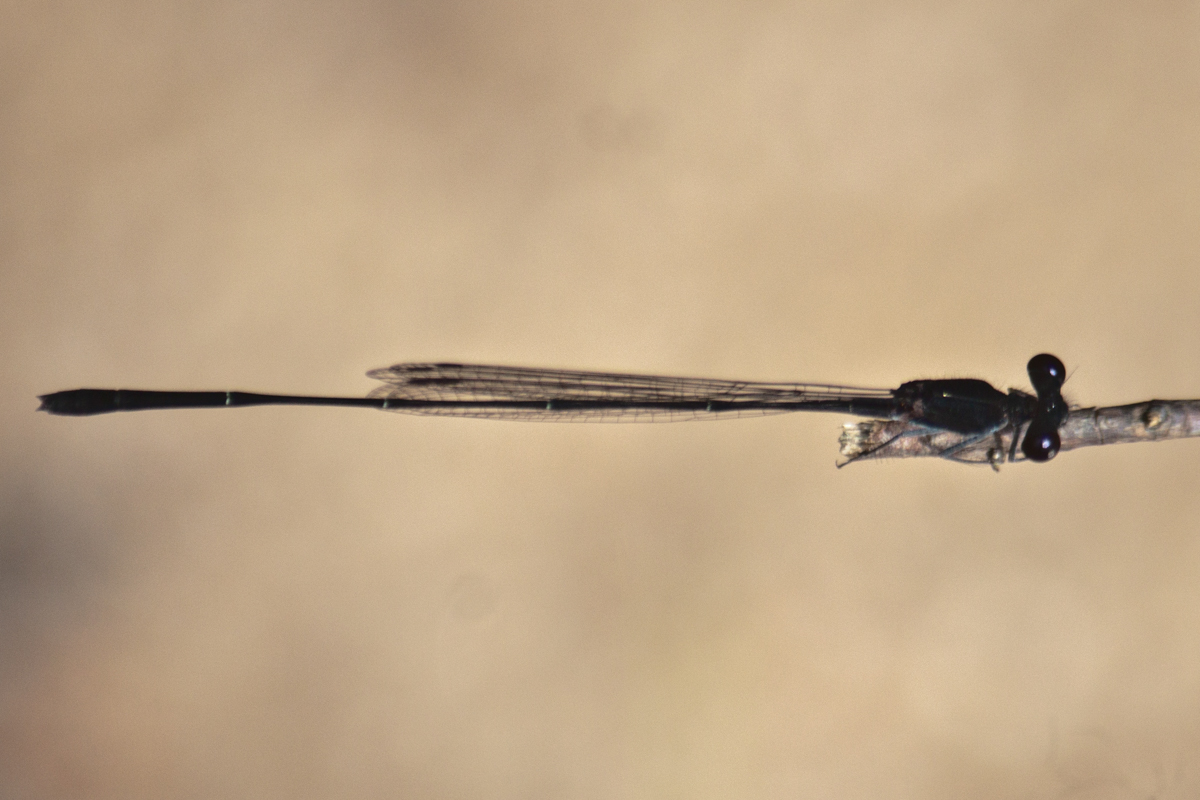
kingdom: Animalia
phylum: Arthropoda
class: Insecta
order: Odonata
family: Platycnemididae
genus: Prodasineura
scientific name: Prodasineura autumnalis
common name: Black threadtail
